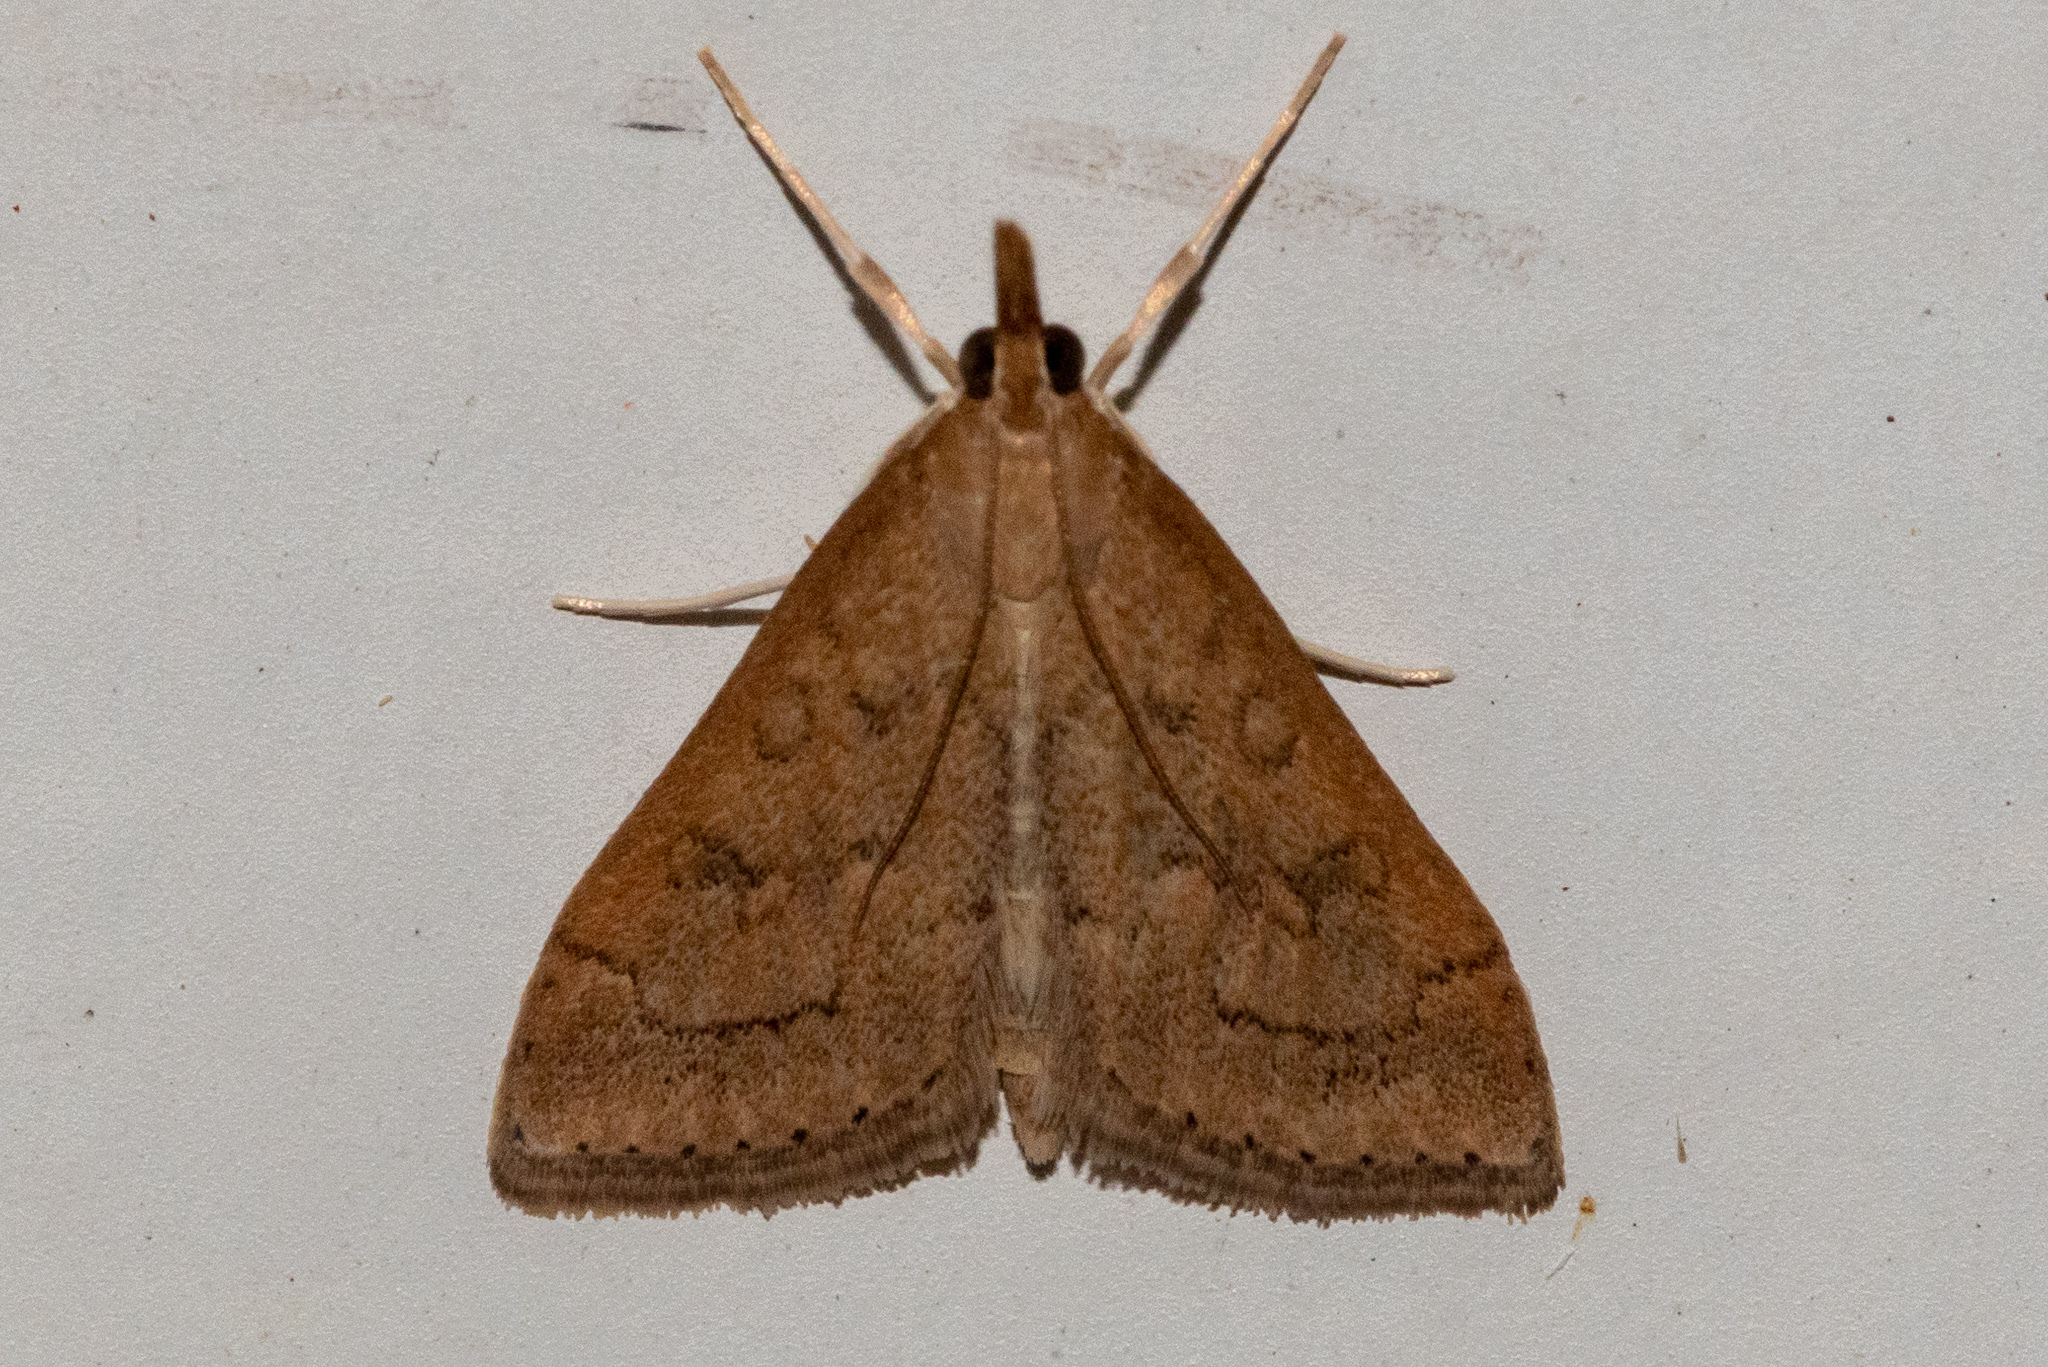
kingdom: Animalia
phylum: Arthropoda
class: Insecta
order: Lepidoptera
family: Crambidae
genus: Udea
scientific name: Udea rubigalis
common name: Celery leaftier moth
